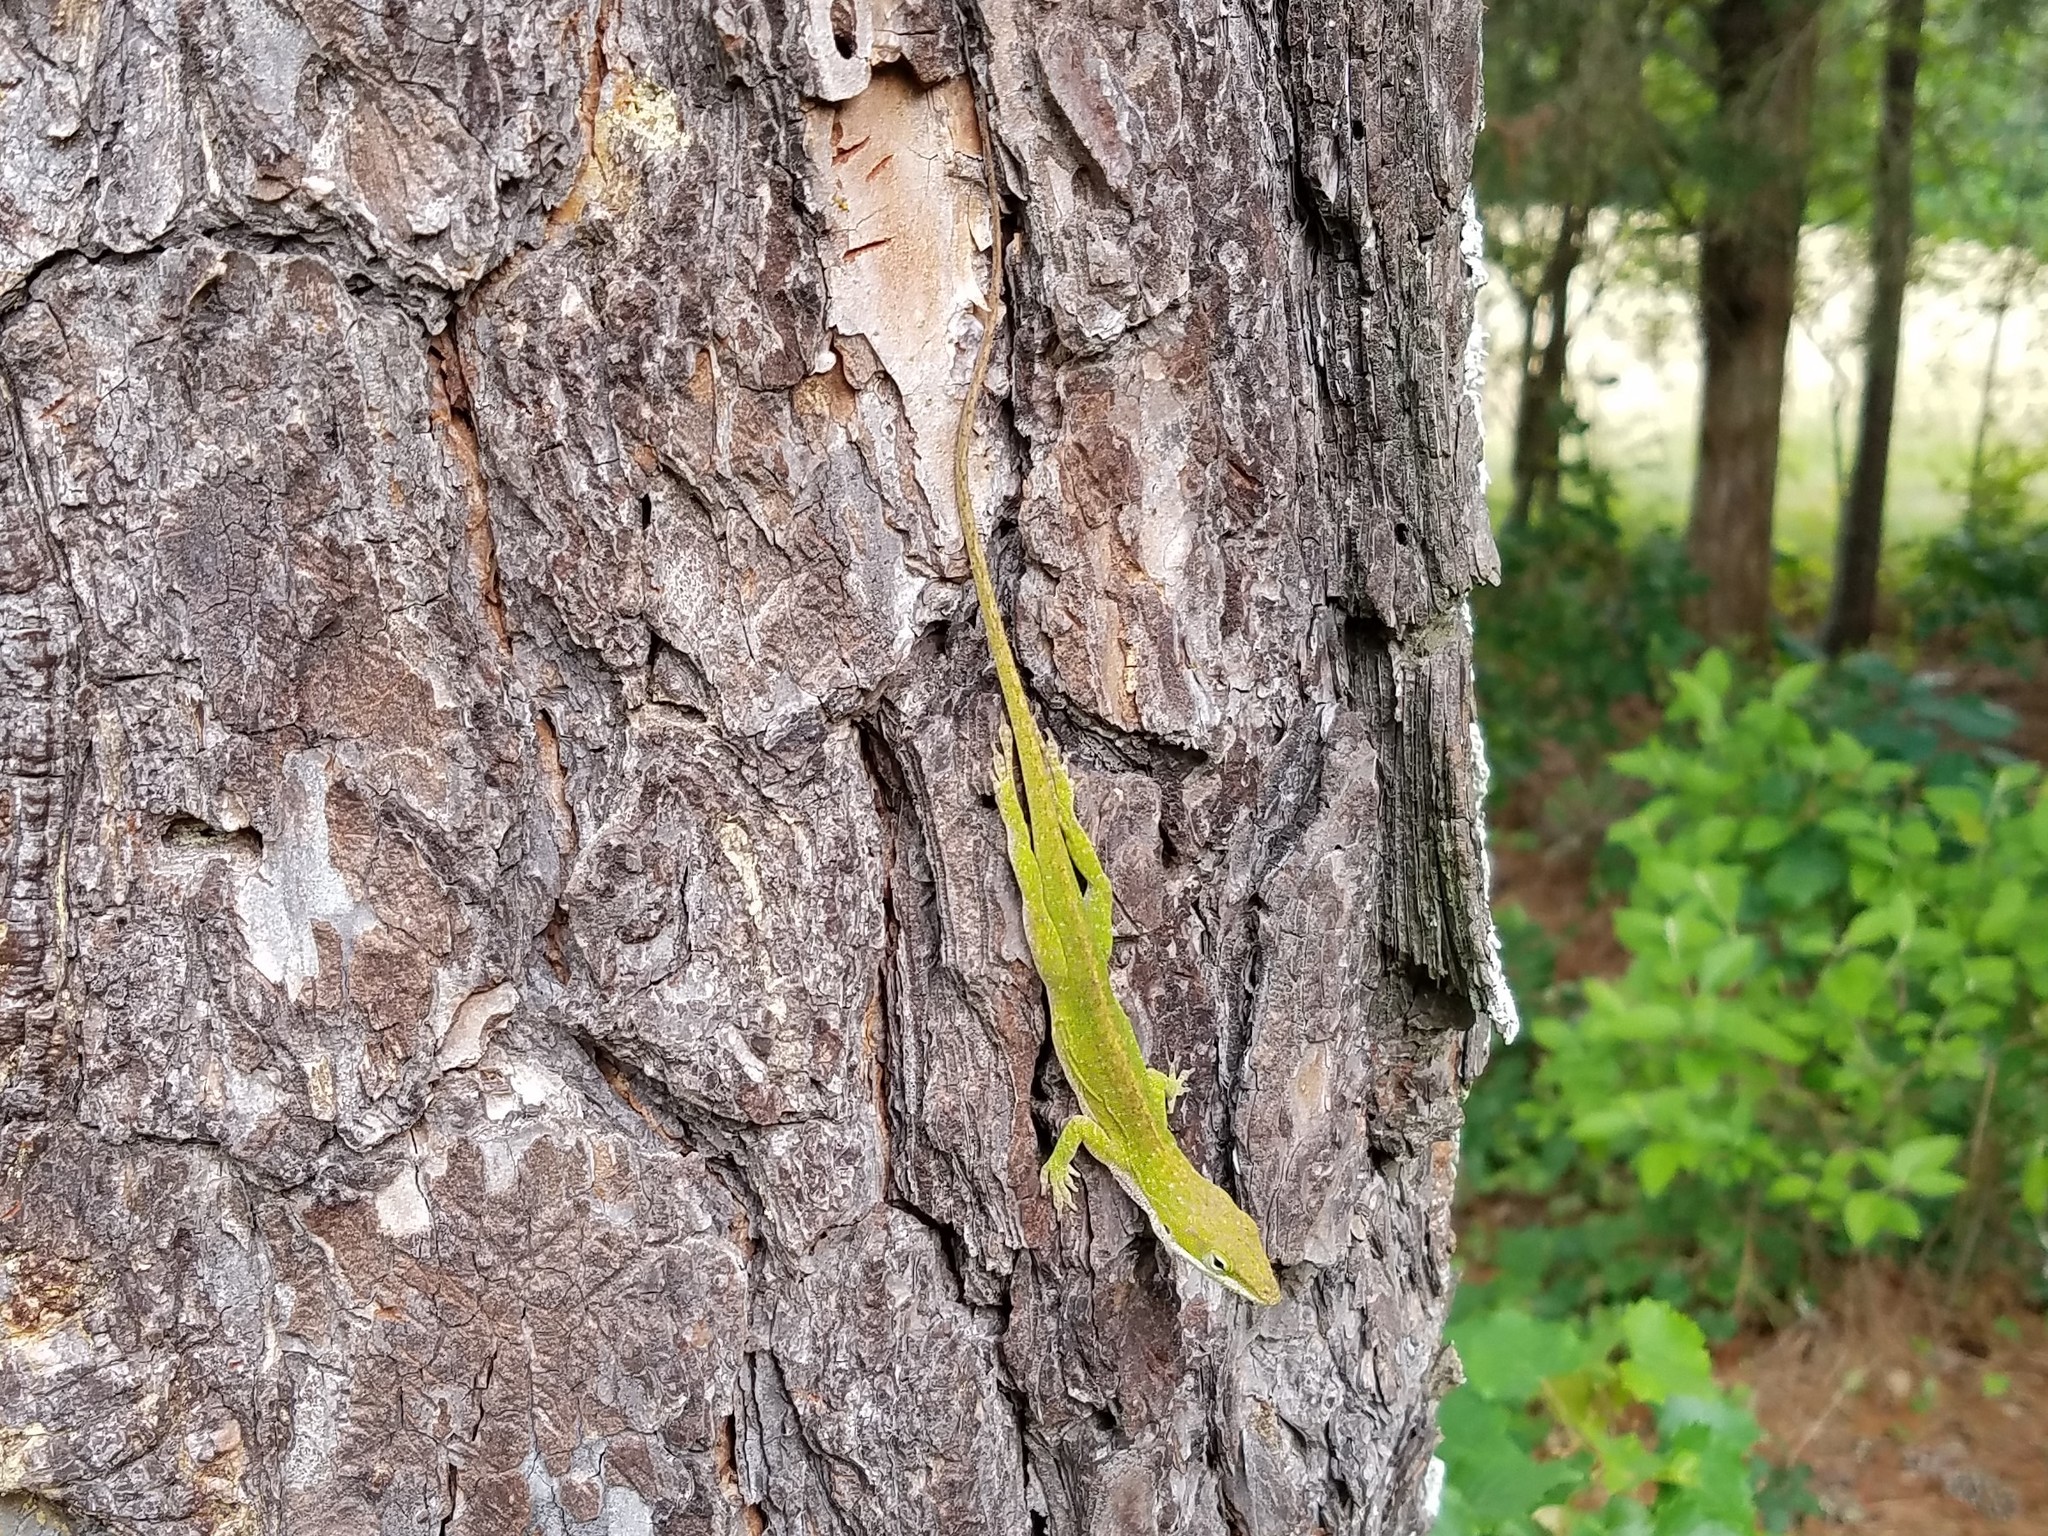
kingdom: Animalia
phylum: Chordata
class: Squamata
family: Dactyloidae
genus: Anolis
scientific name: Anolis carolinensis
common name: Green anole
